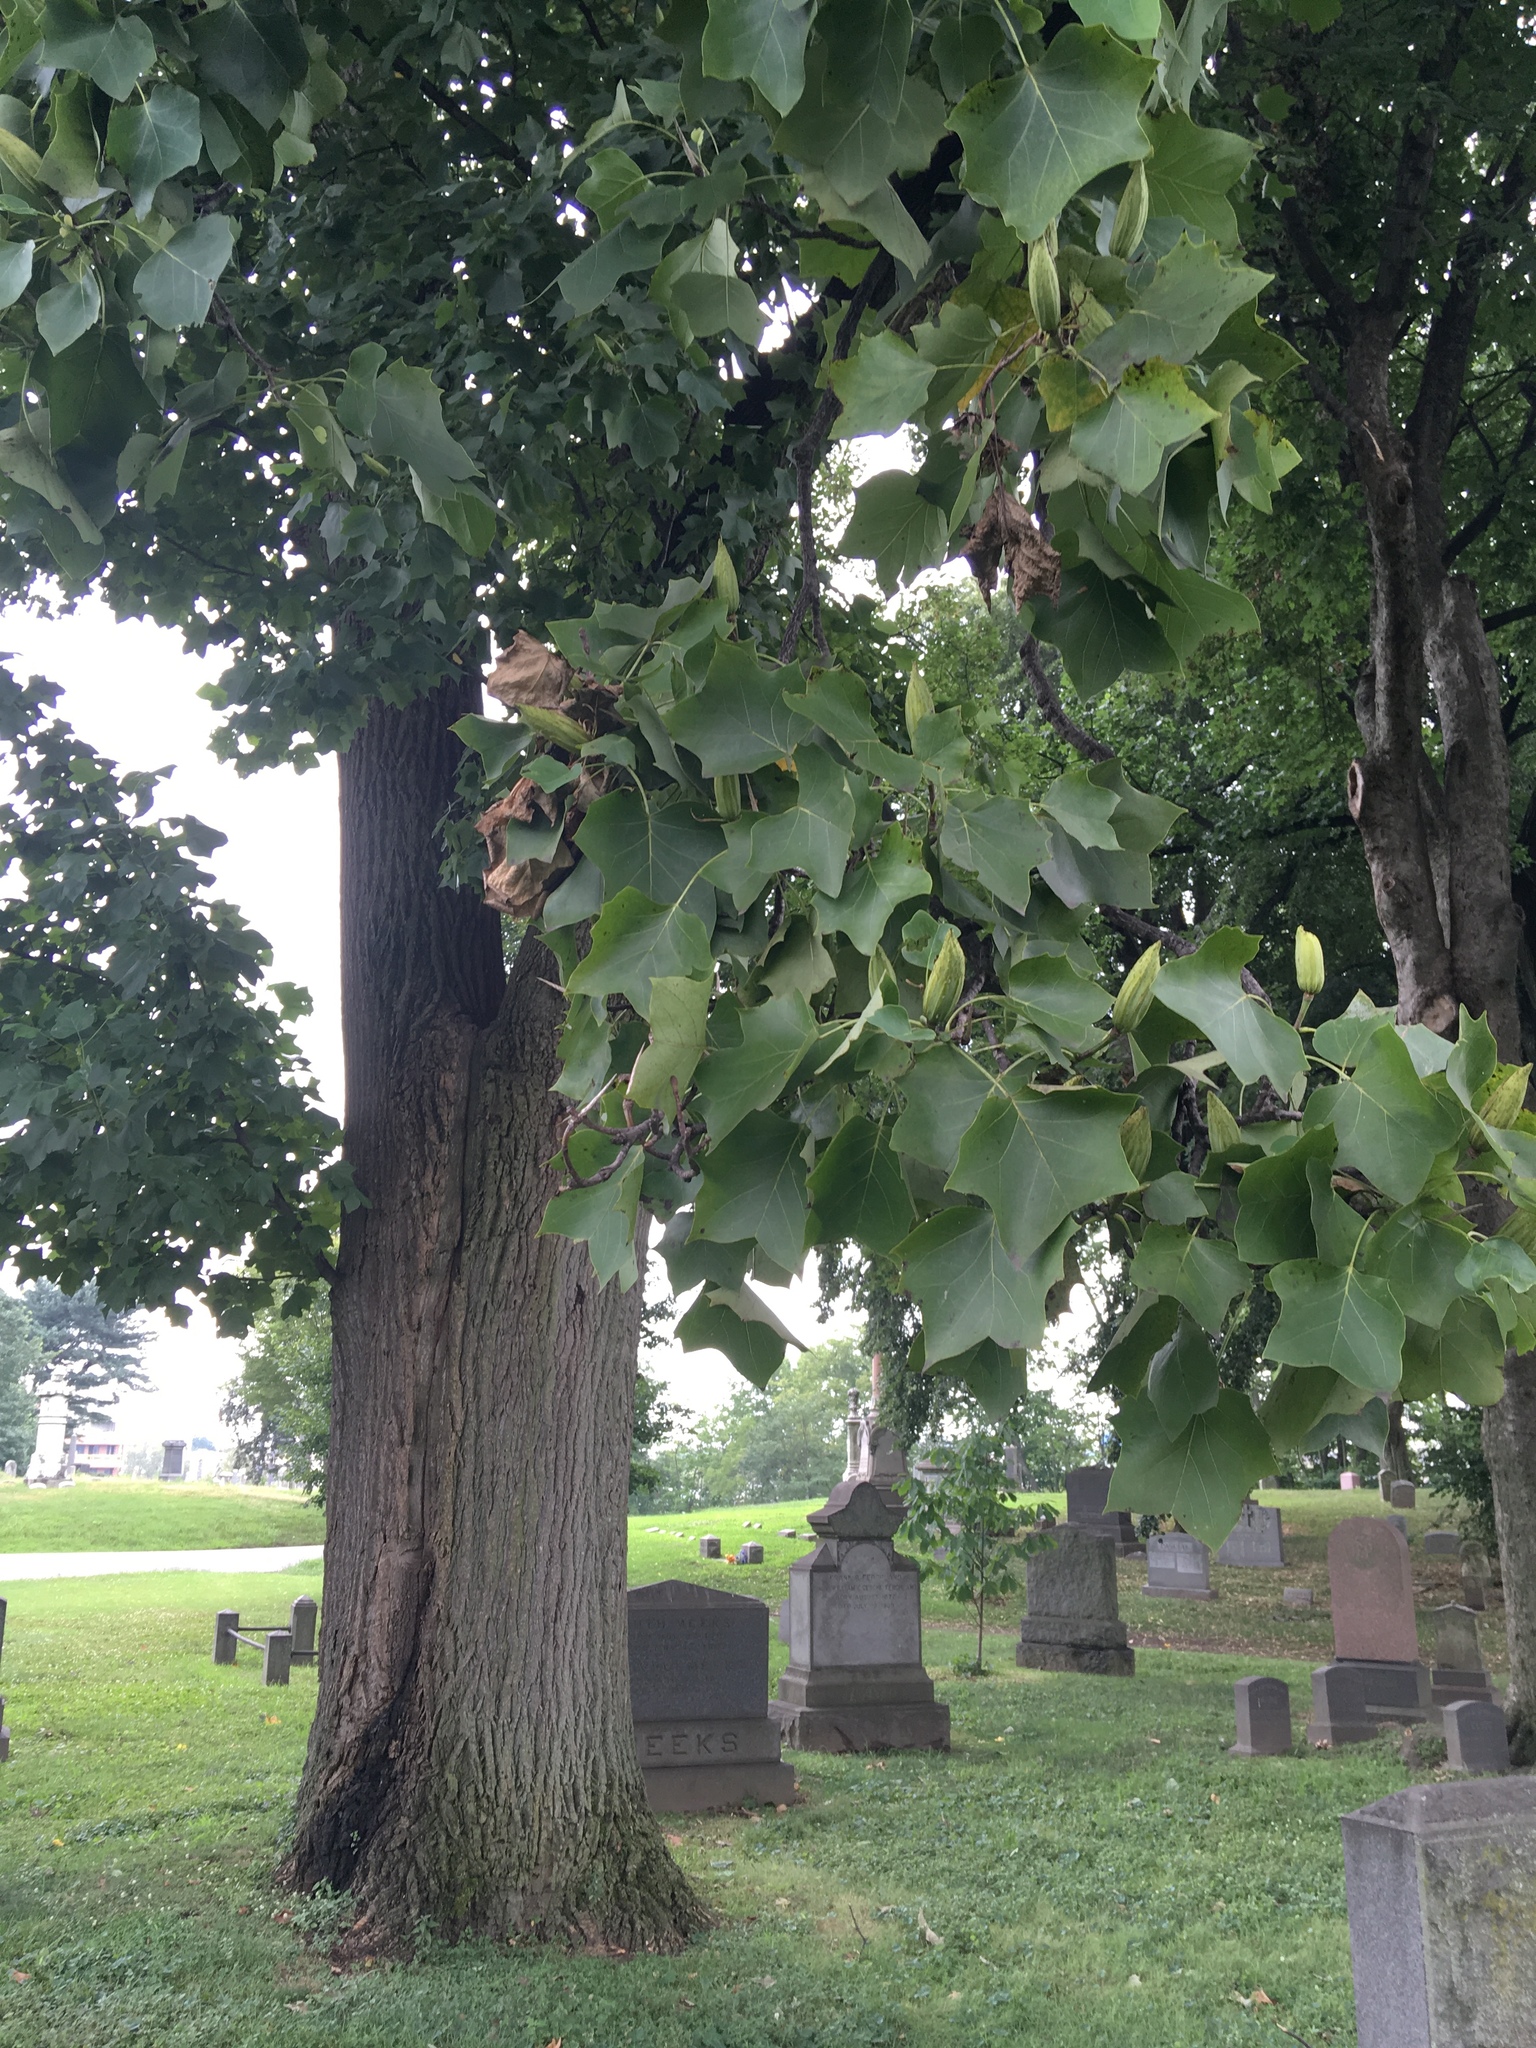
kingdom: Plantae
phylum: Tracheophyta
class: Magnoliopsida
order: Magnoliales
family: Magnoliaceae
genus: Liriodendron
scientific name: Liriodendron tulipifera
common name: Tulip tree
